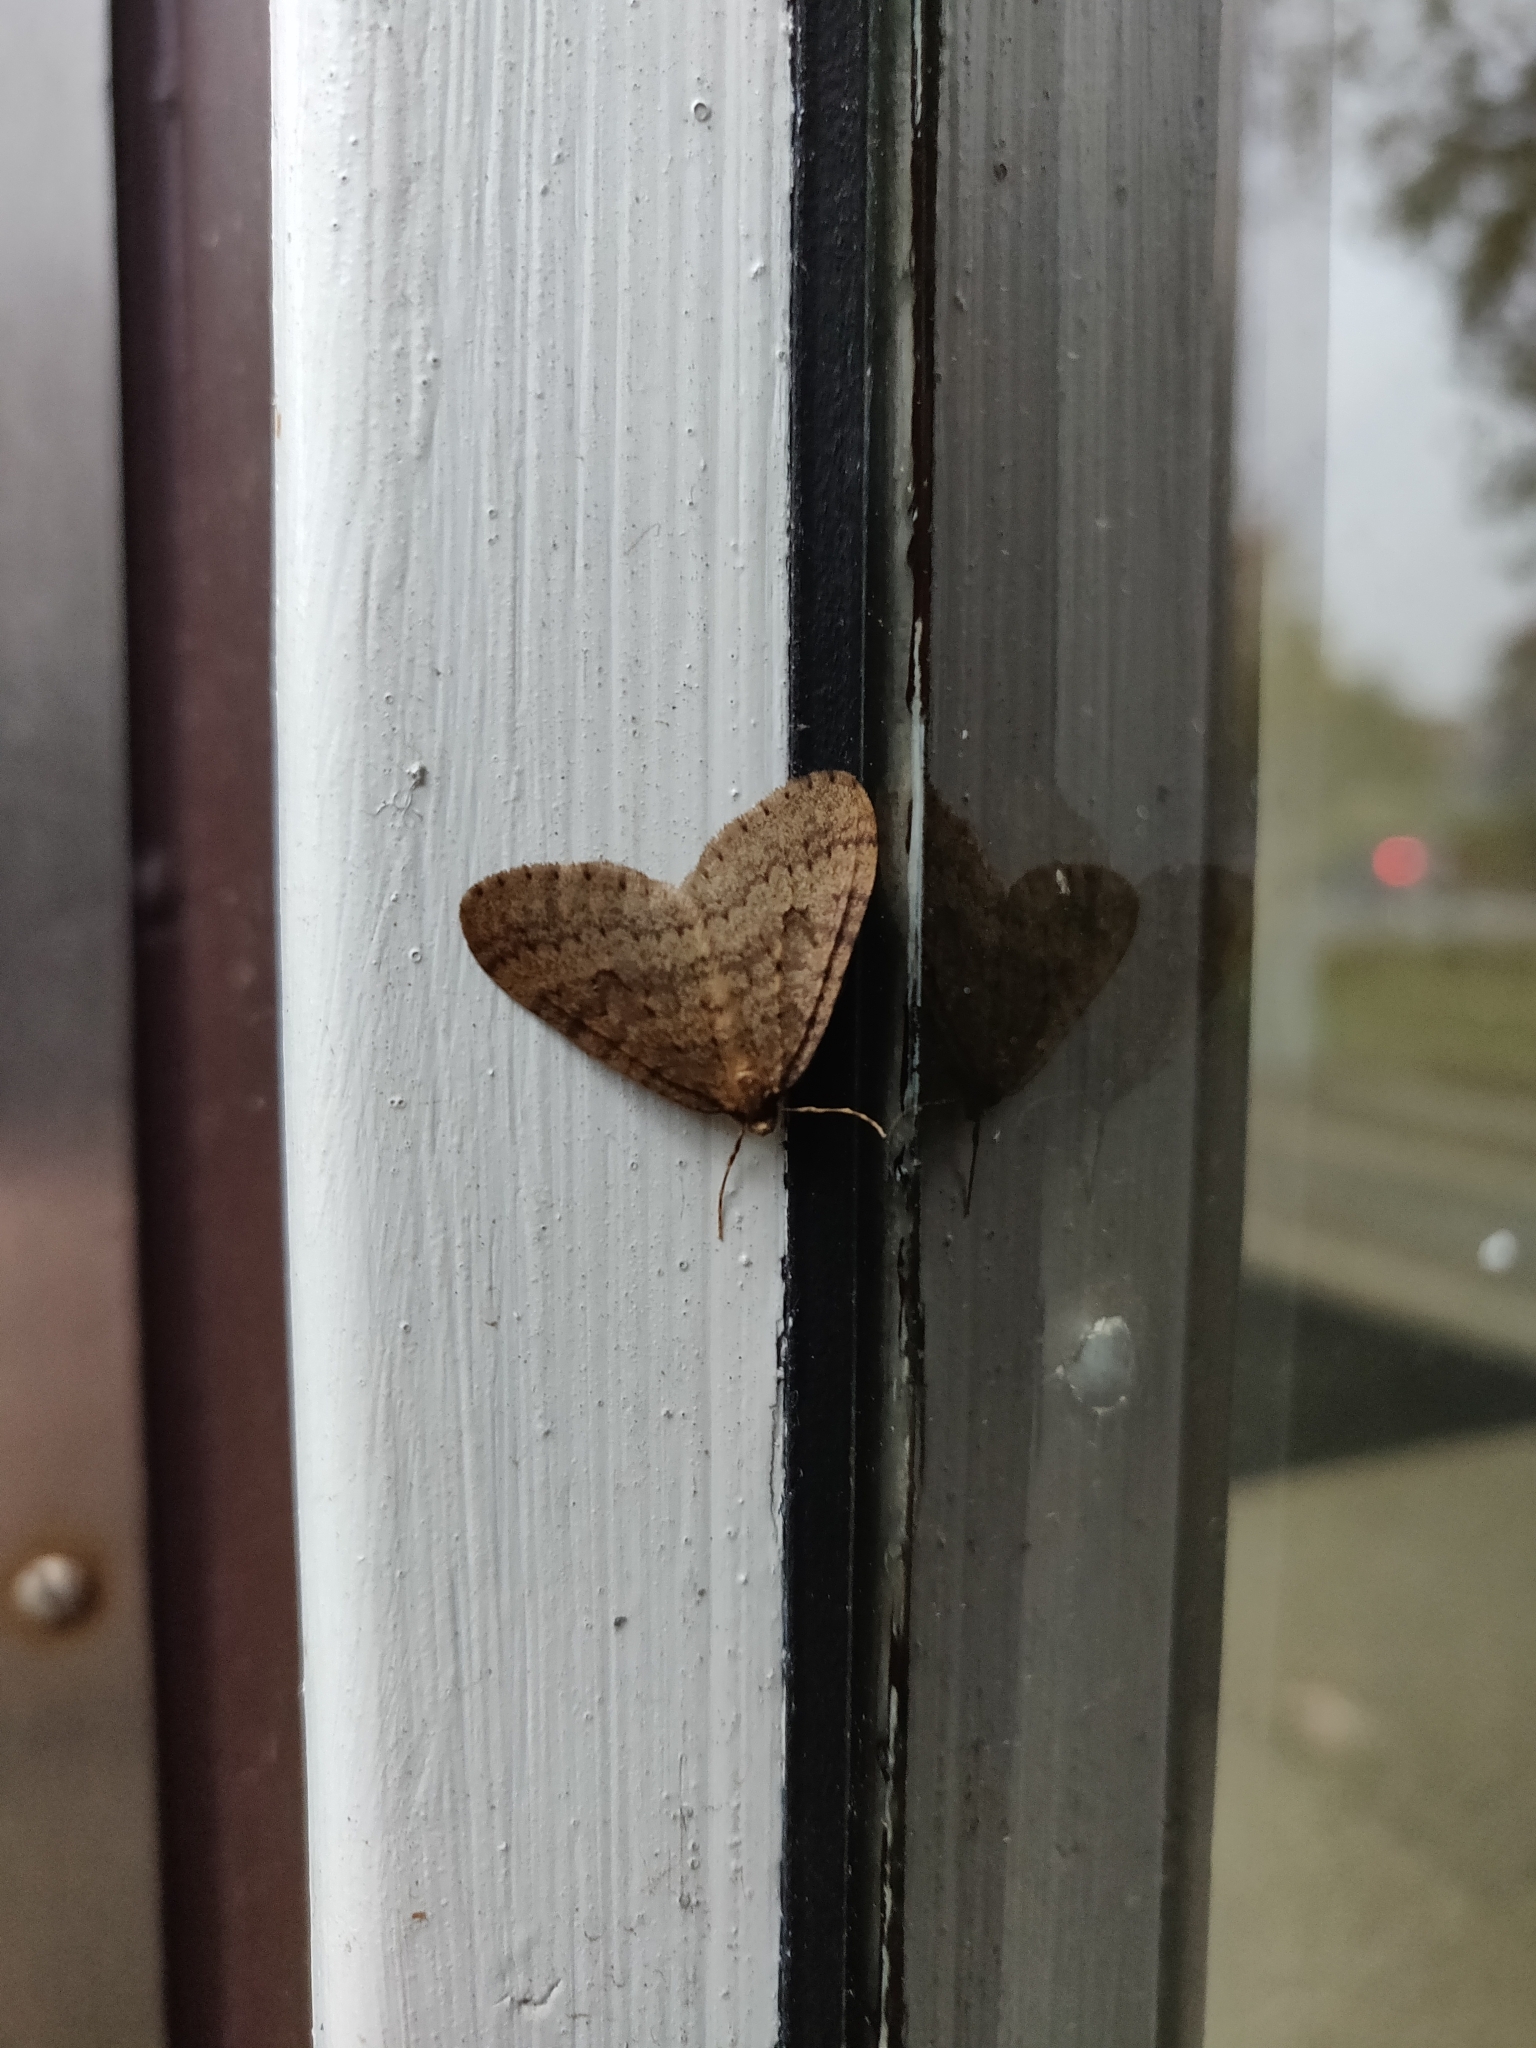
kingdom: Animalia
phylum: Arthropoda
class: Insecta
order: Lepidoptera
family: Geometridae
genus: Operophtera
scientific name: Operophtera brumata
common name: Winter moth
